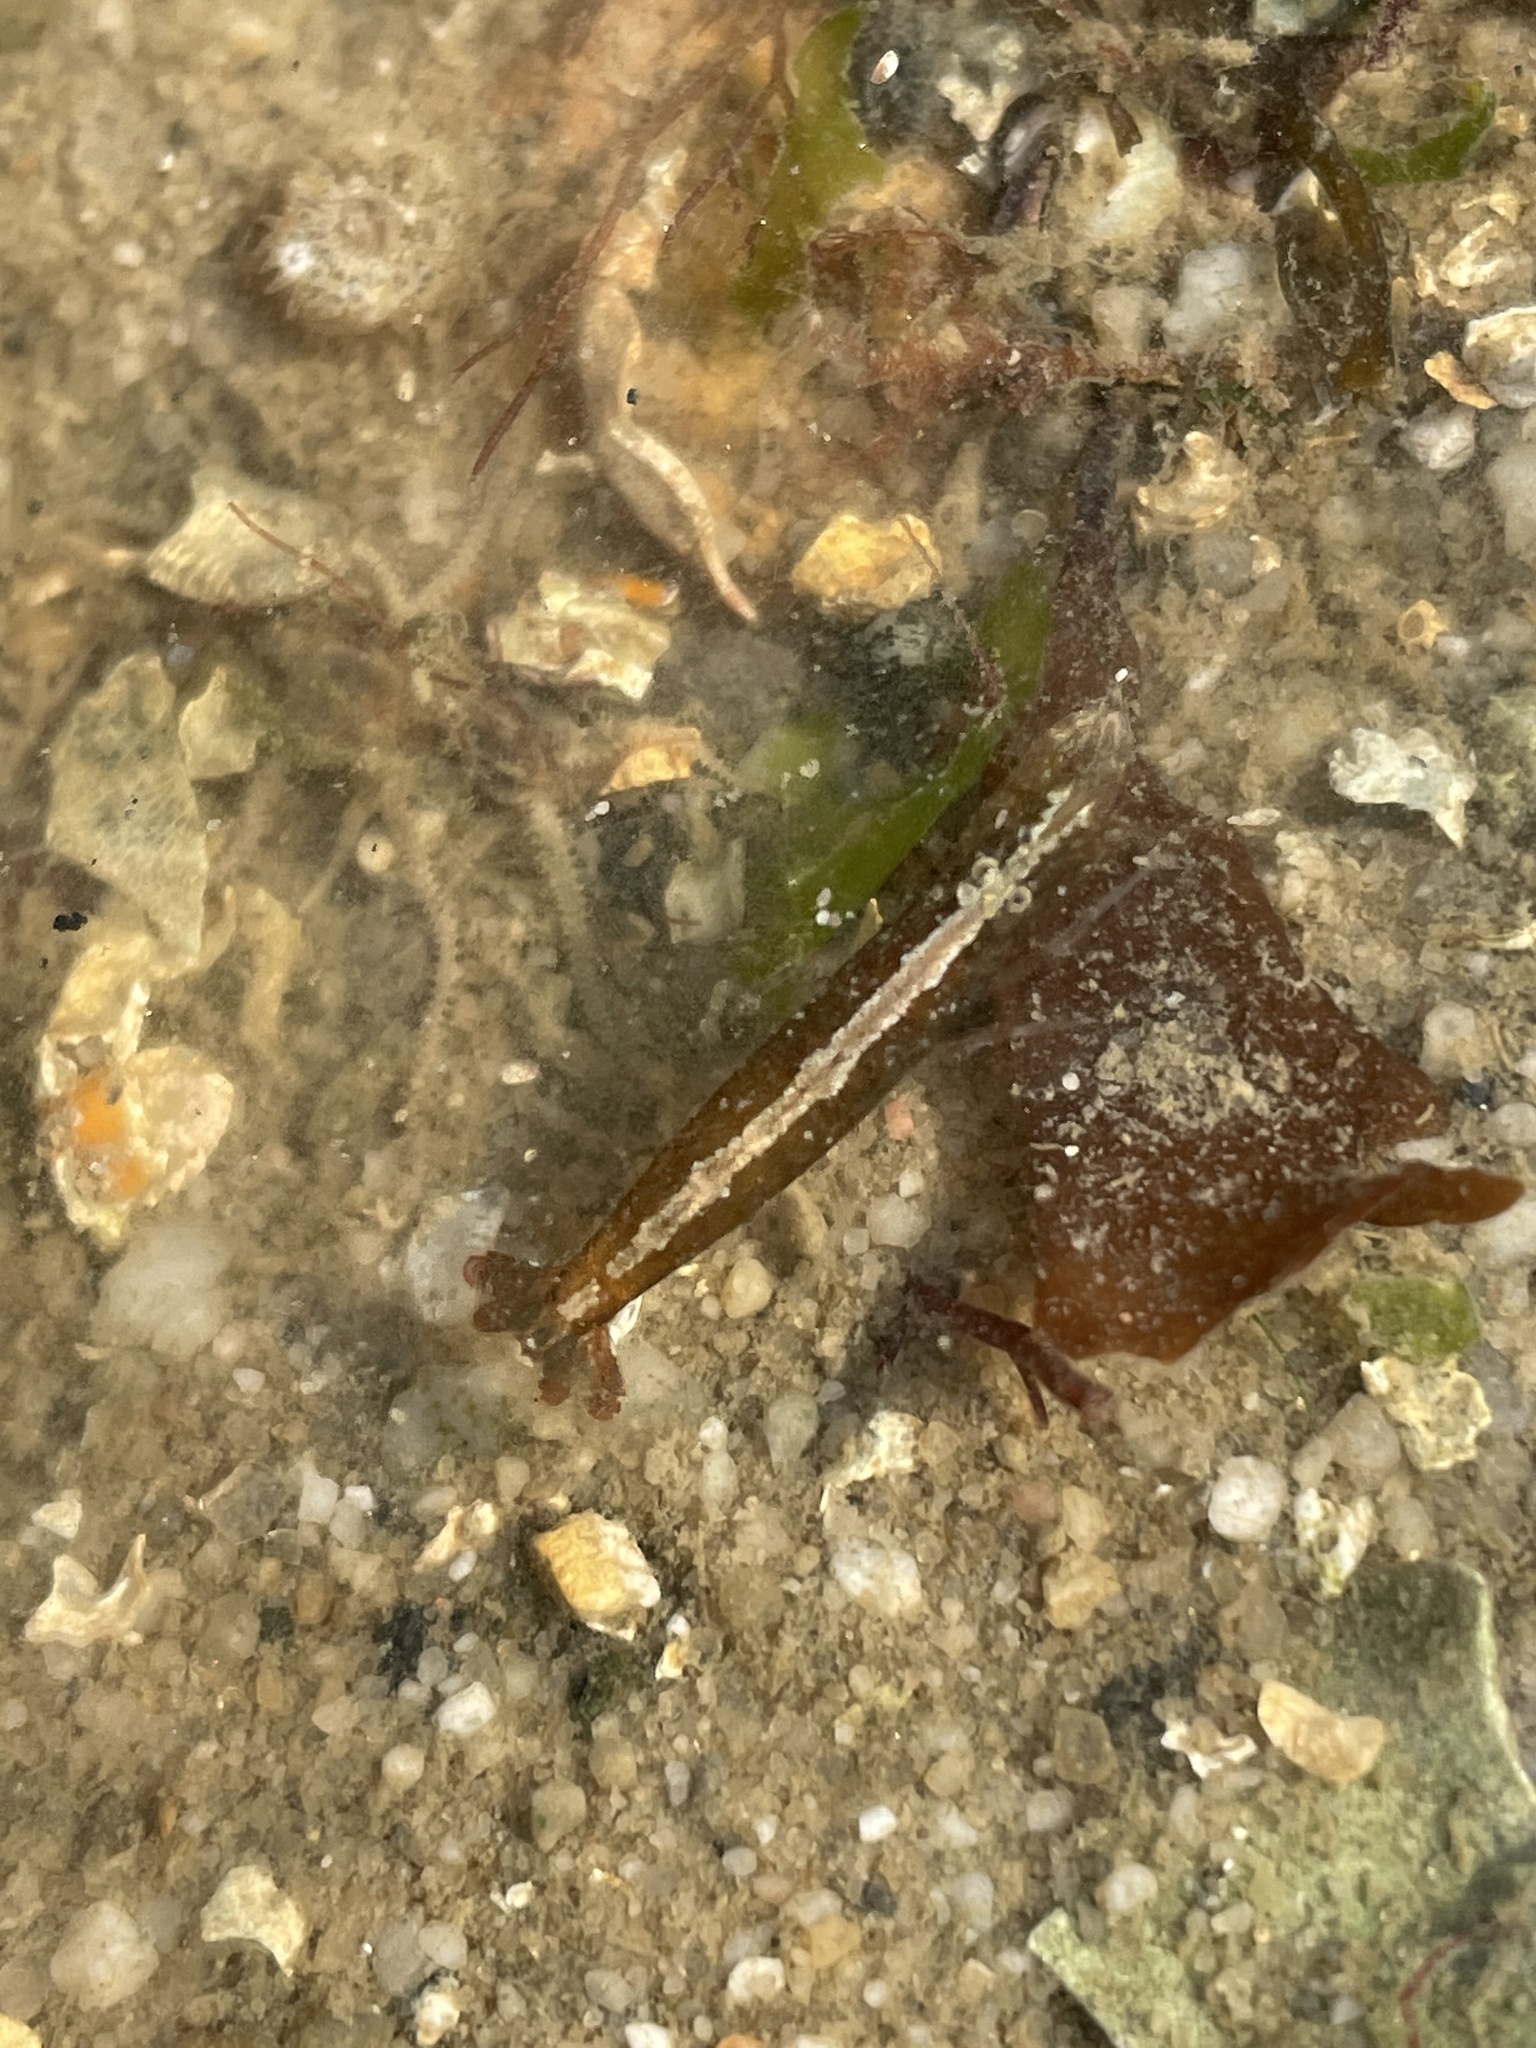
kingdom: Animalia
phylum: Arthropoda
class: Malacostraca
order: Decapoda
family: Alpheidae
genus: Athanas
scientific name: Athanas nitescens
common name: Hooded shrimp
